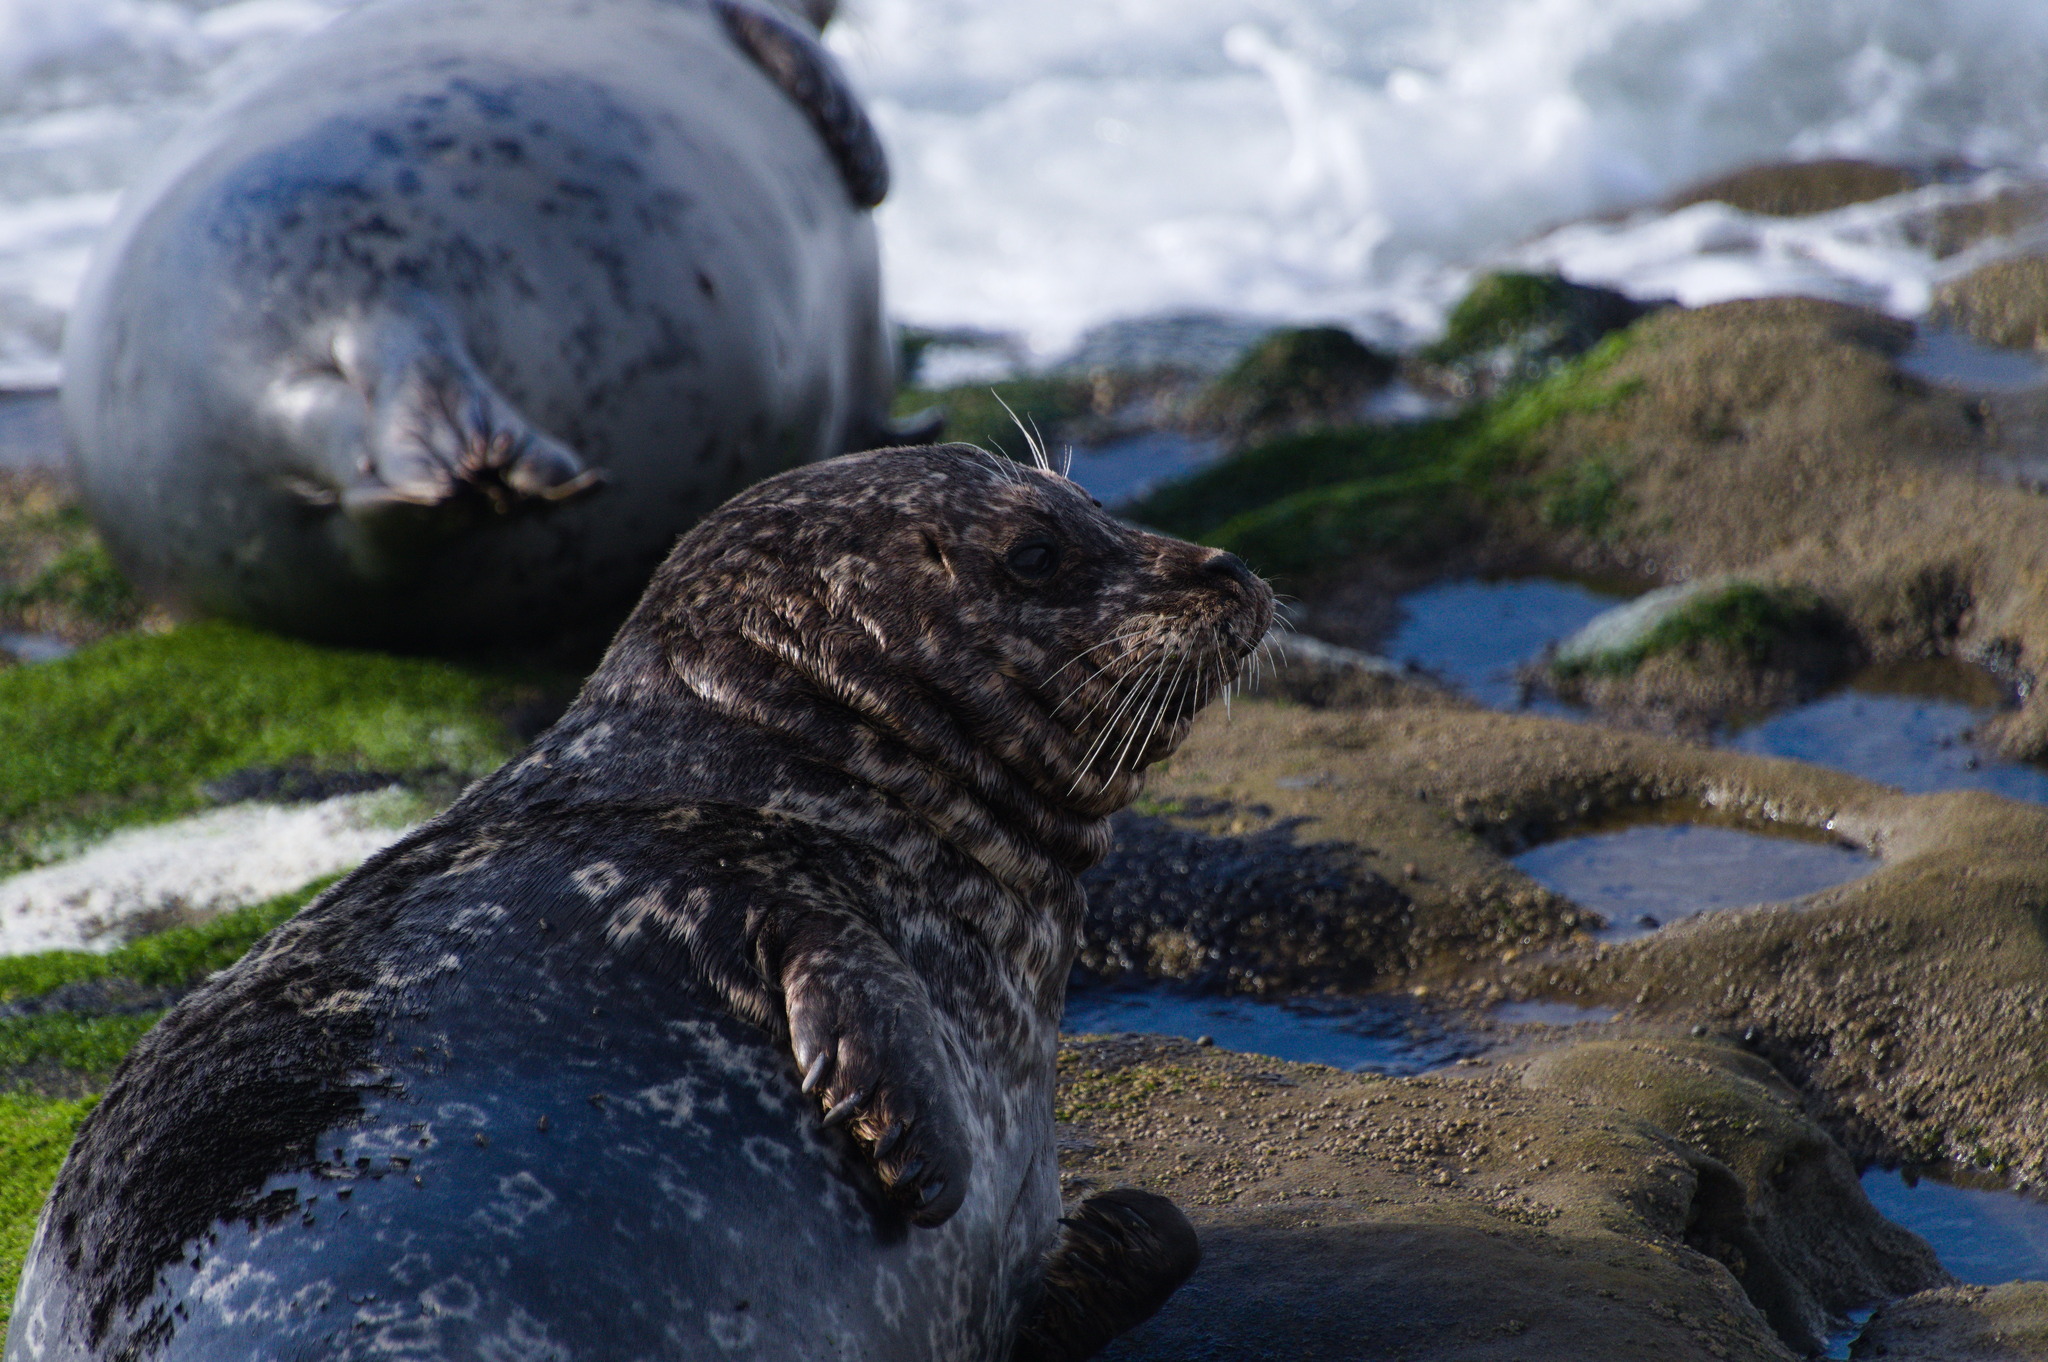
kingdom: Animalia
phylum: Chordata
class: Mammalia
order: Carnivora
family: Phocidae
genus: Phoca
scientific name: Phoca vitulina
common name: Harbor seal
